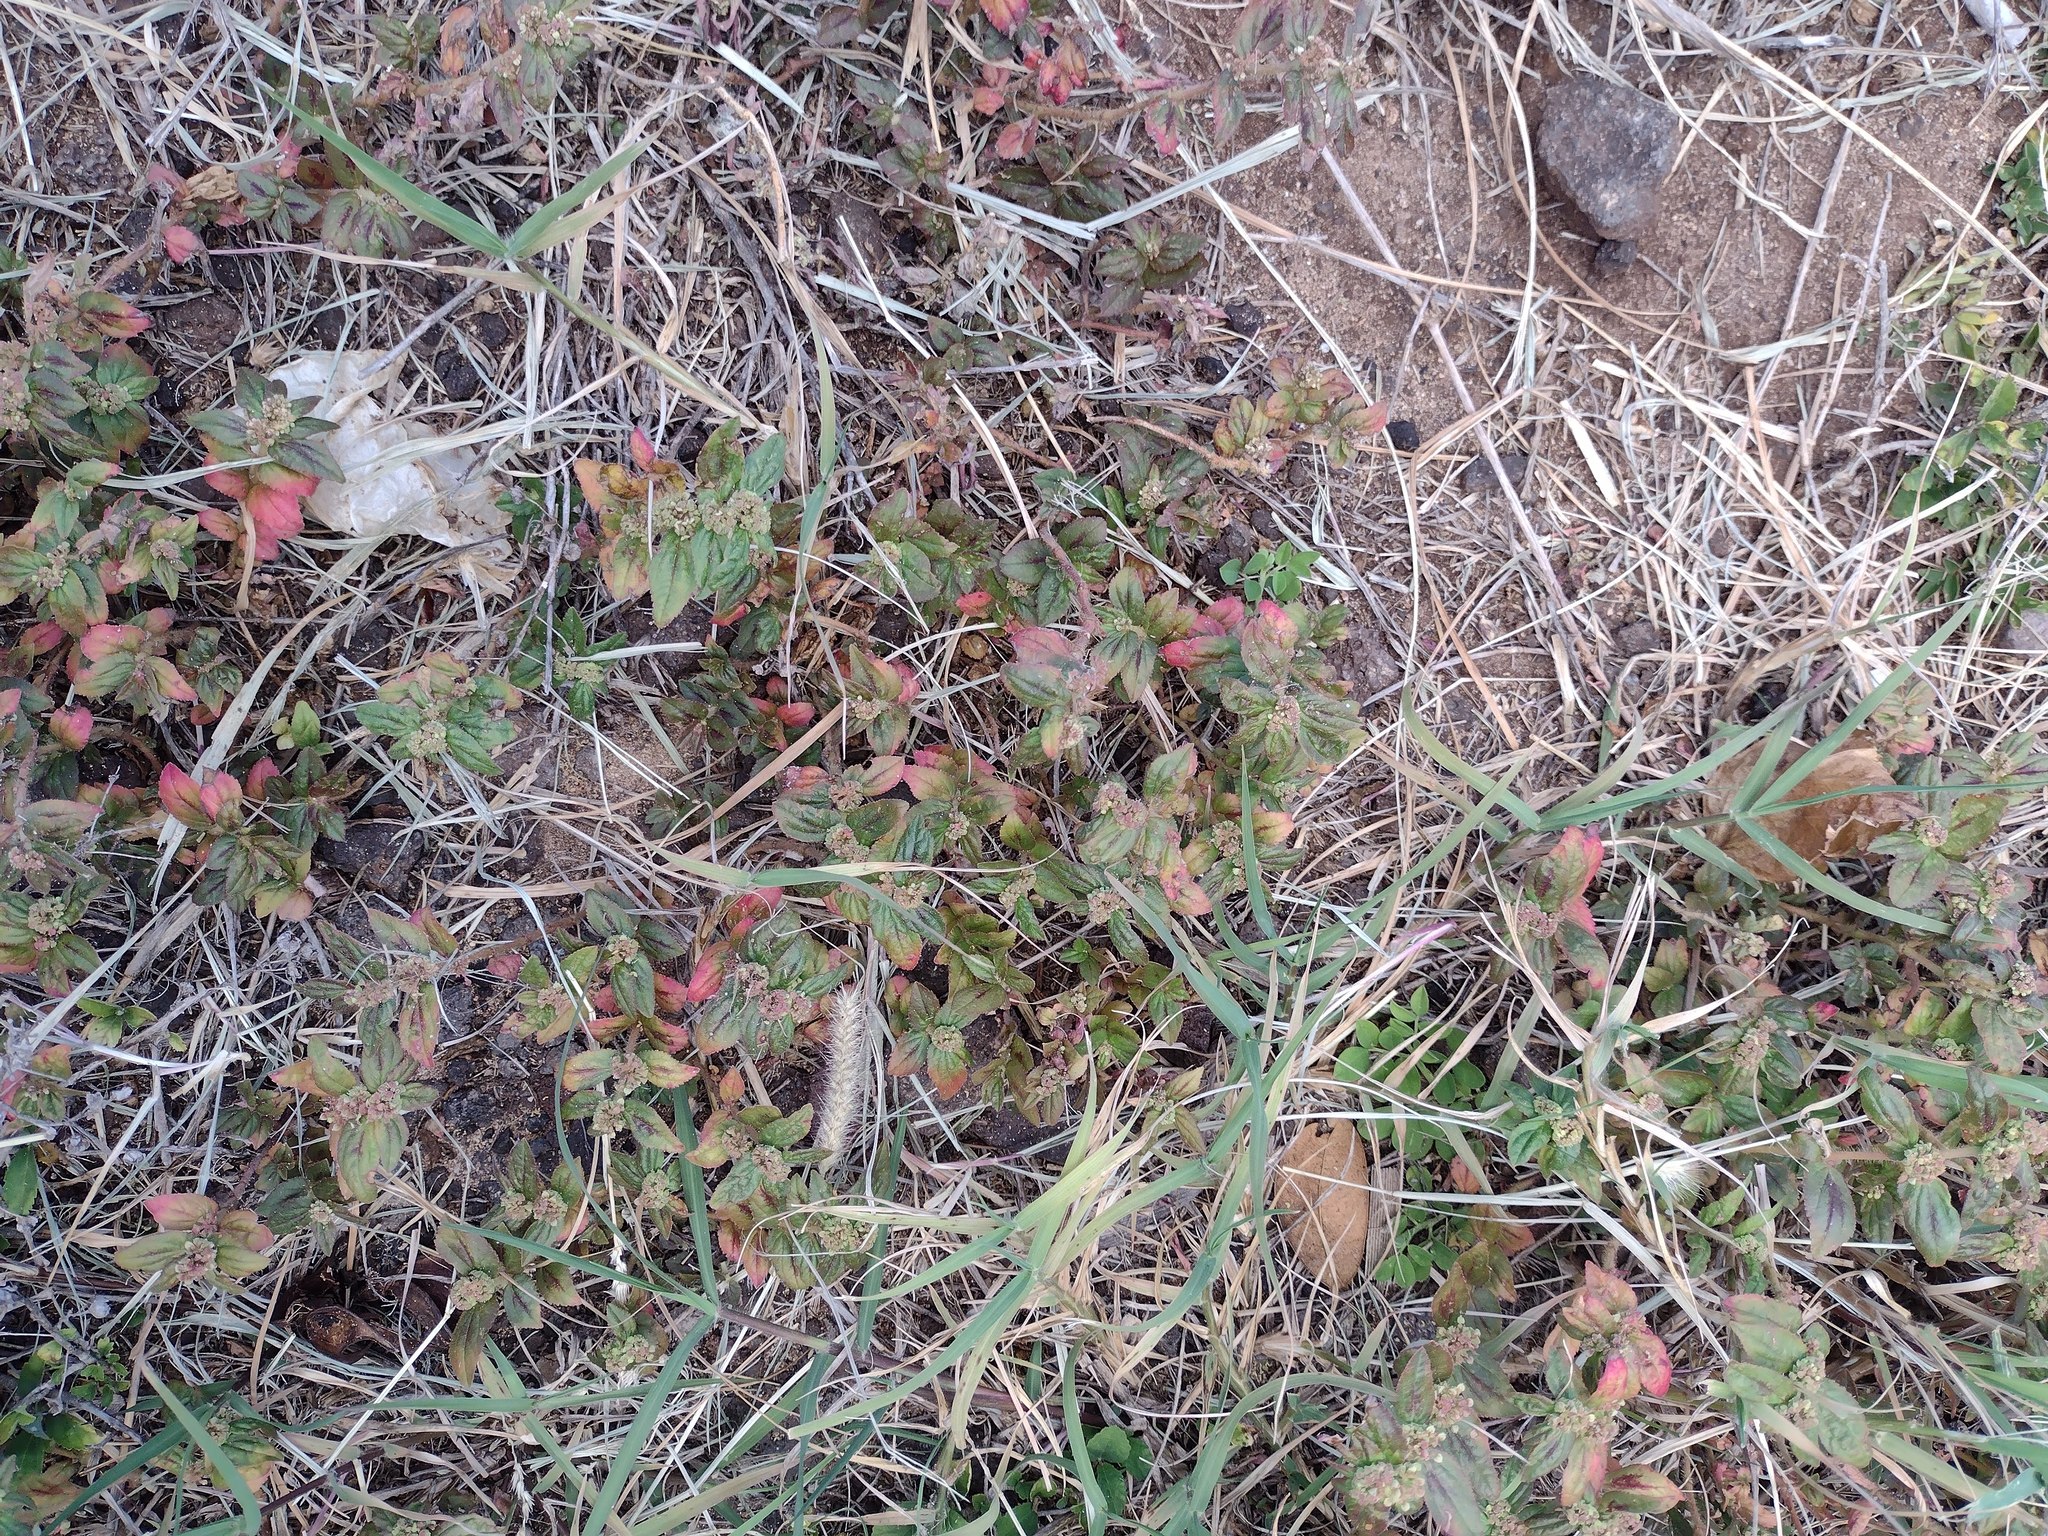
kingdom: Plantae
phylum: Tracheophyta
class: Magnoliopsida
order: Malpighiales
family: Euphorbiaceae
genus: Euphorbia
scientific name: Euphorbia hirta
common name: Pillpod sandmat
